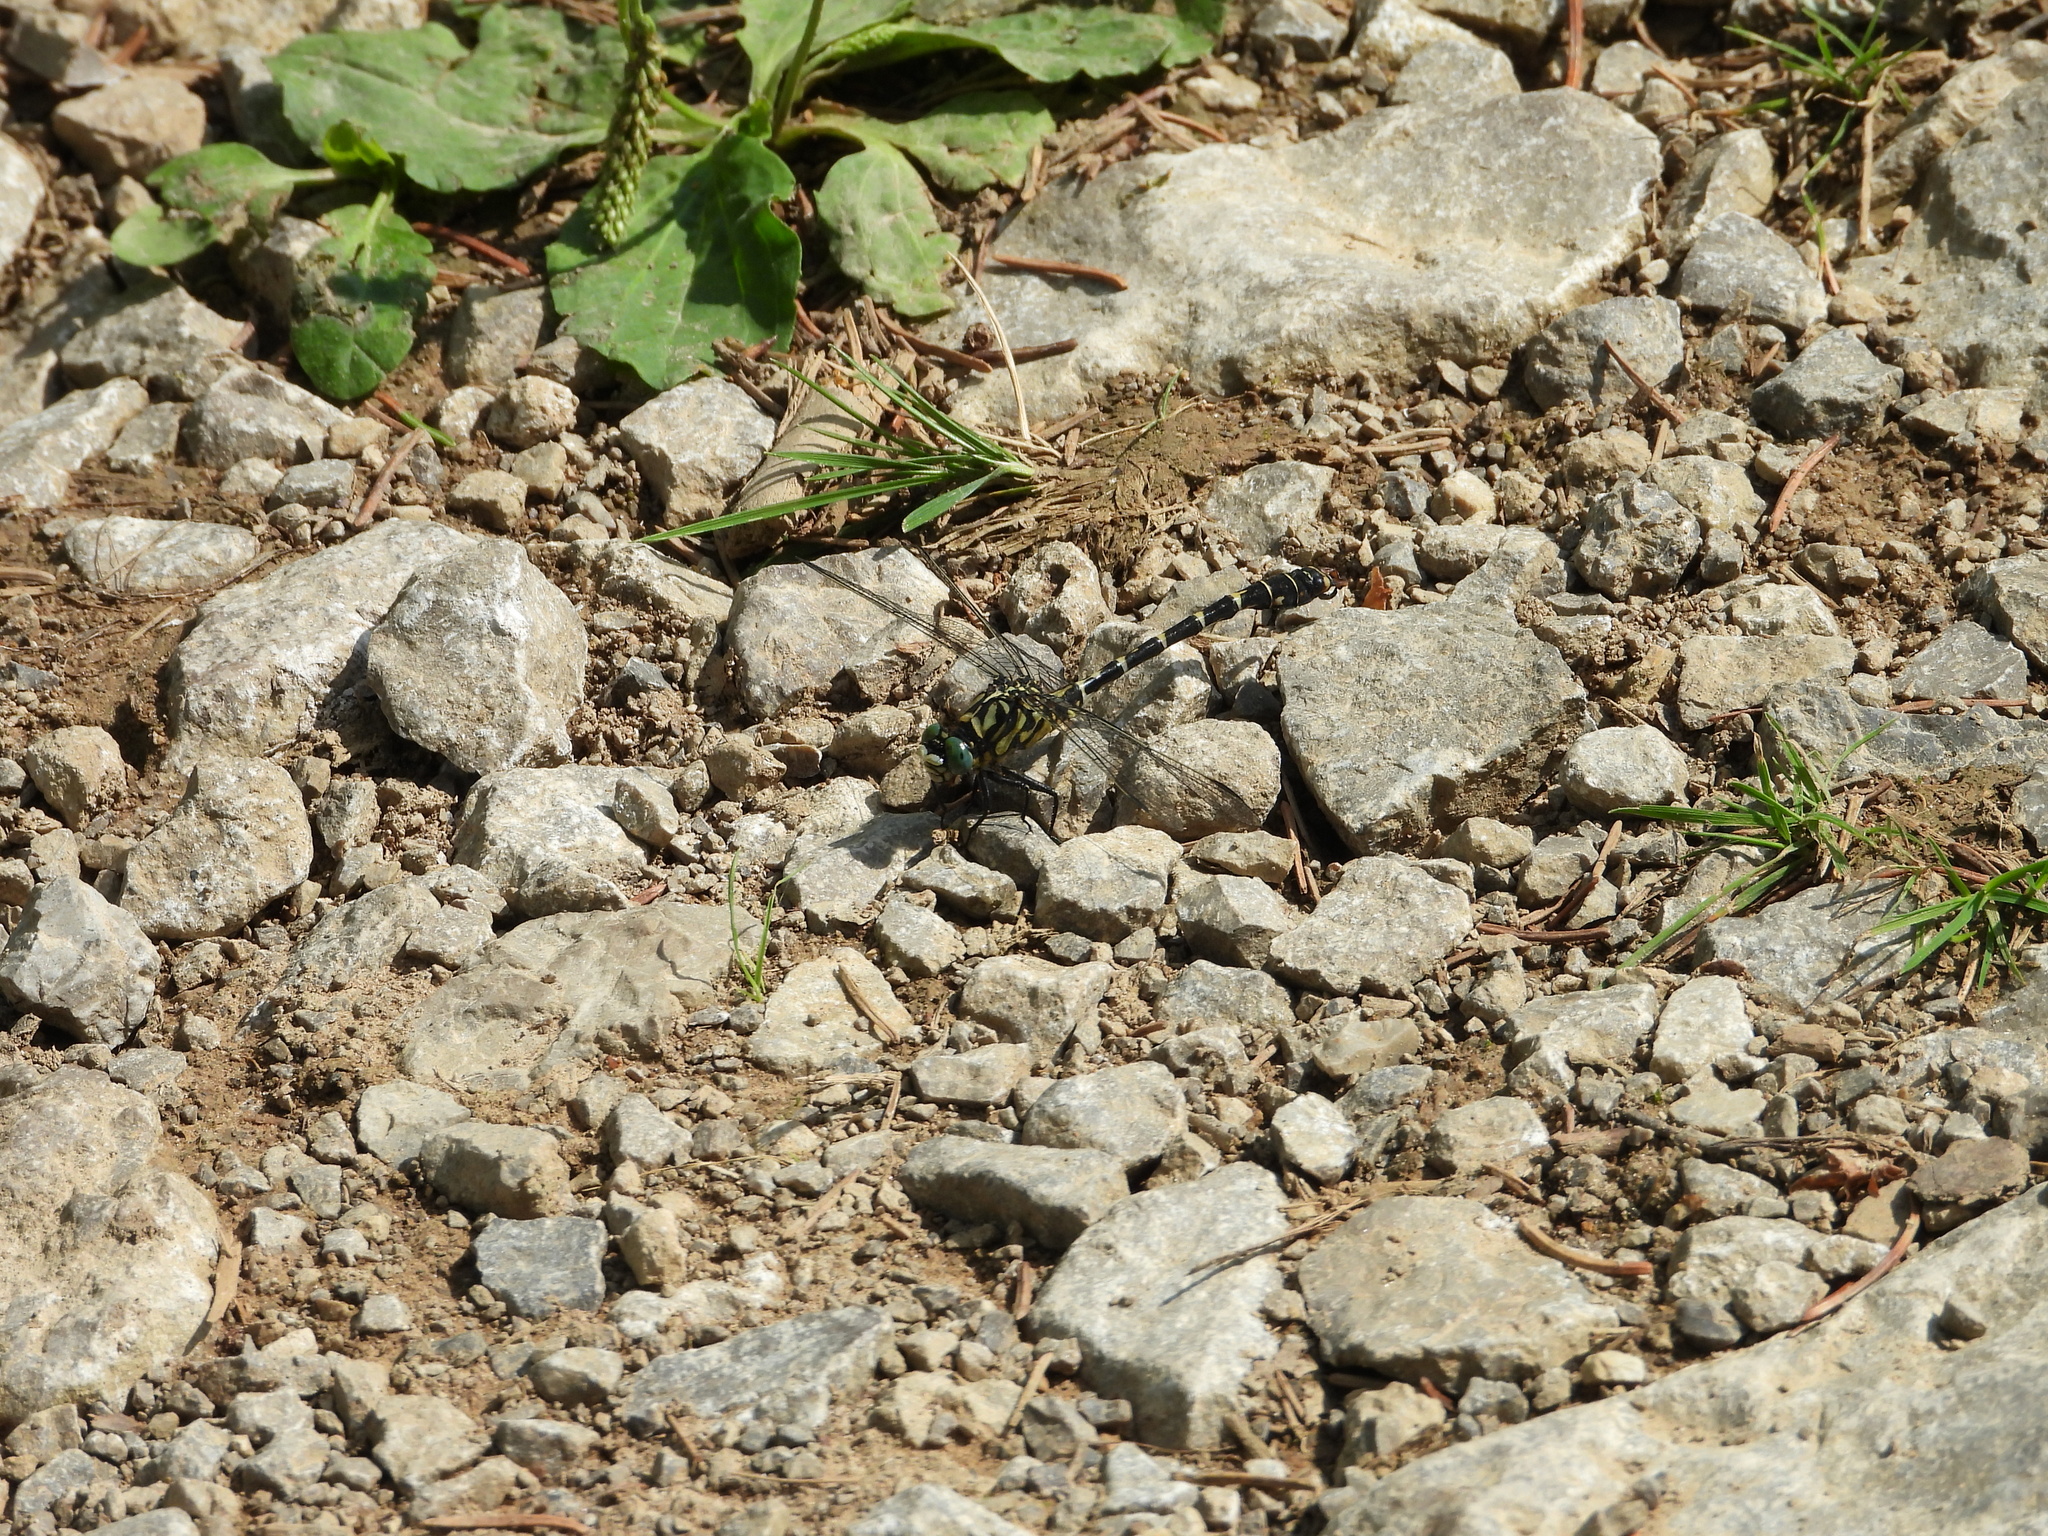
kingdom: Animalia
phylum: Arthropoda
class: Insecta
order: Odonata
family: Gomphidae
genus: Onychogomphus
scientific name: Onychogomphus forcipatus
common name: Small pincertail
